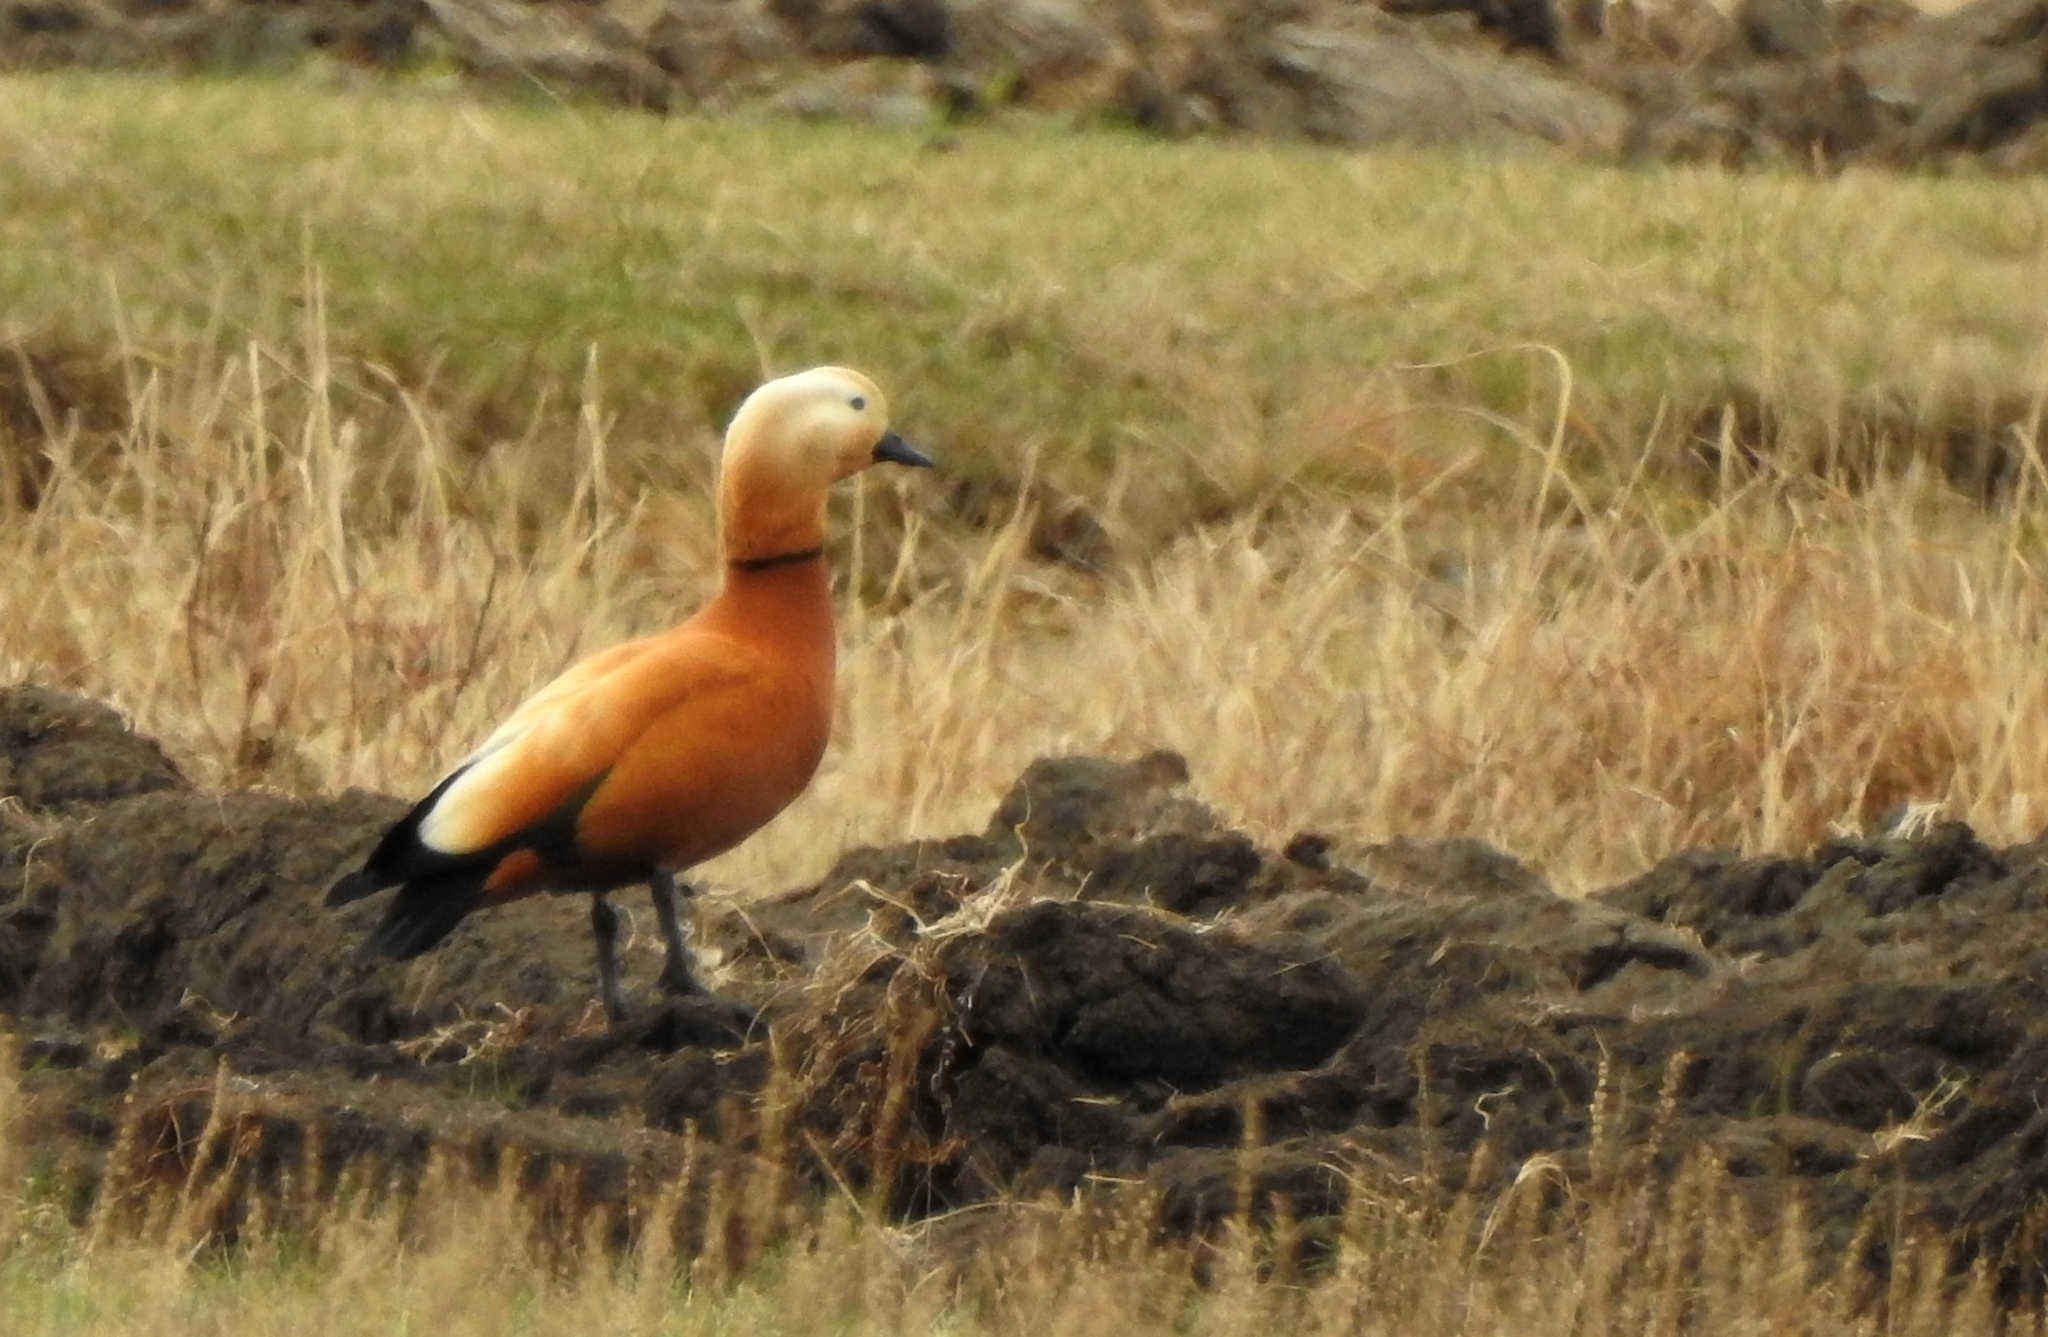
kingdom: Animalia
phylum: Chordata
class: Aves
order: Anseriformes
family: Anatidae
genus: Tadorna
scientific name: Tadorna ferruginea
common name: Ruddy shelduck
